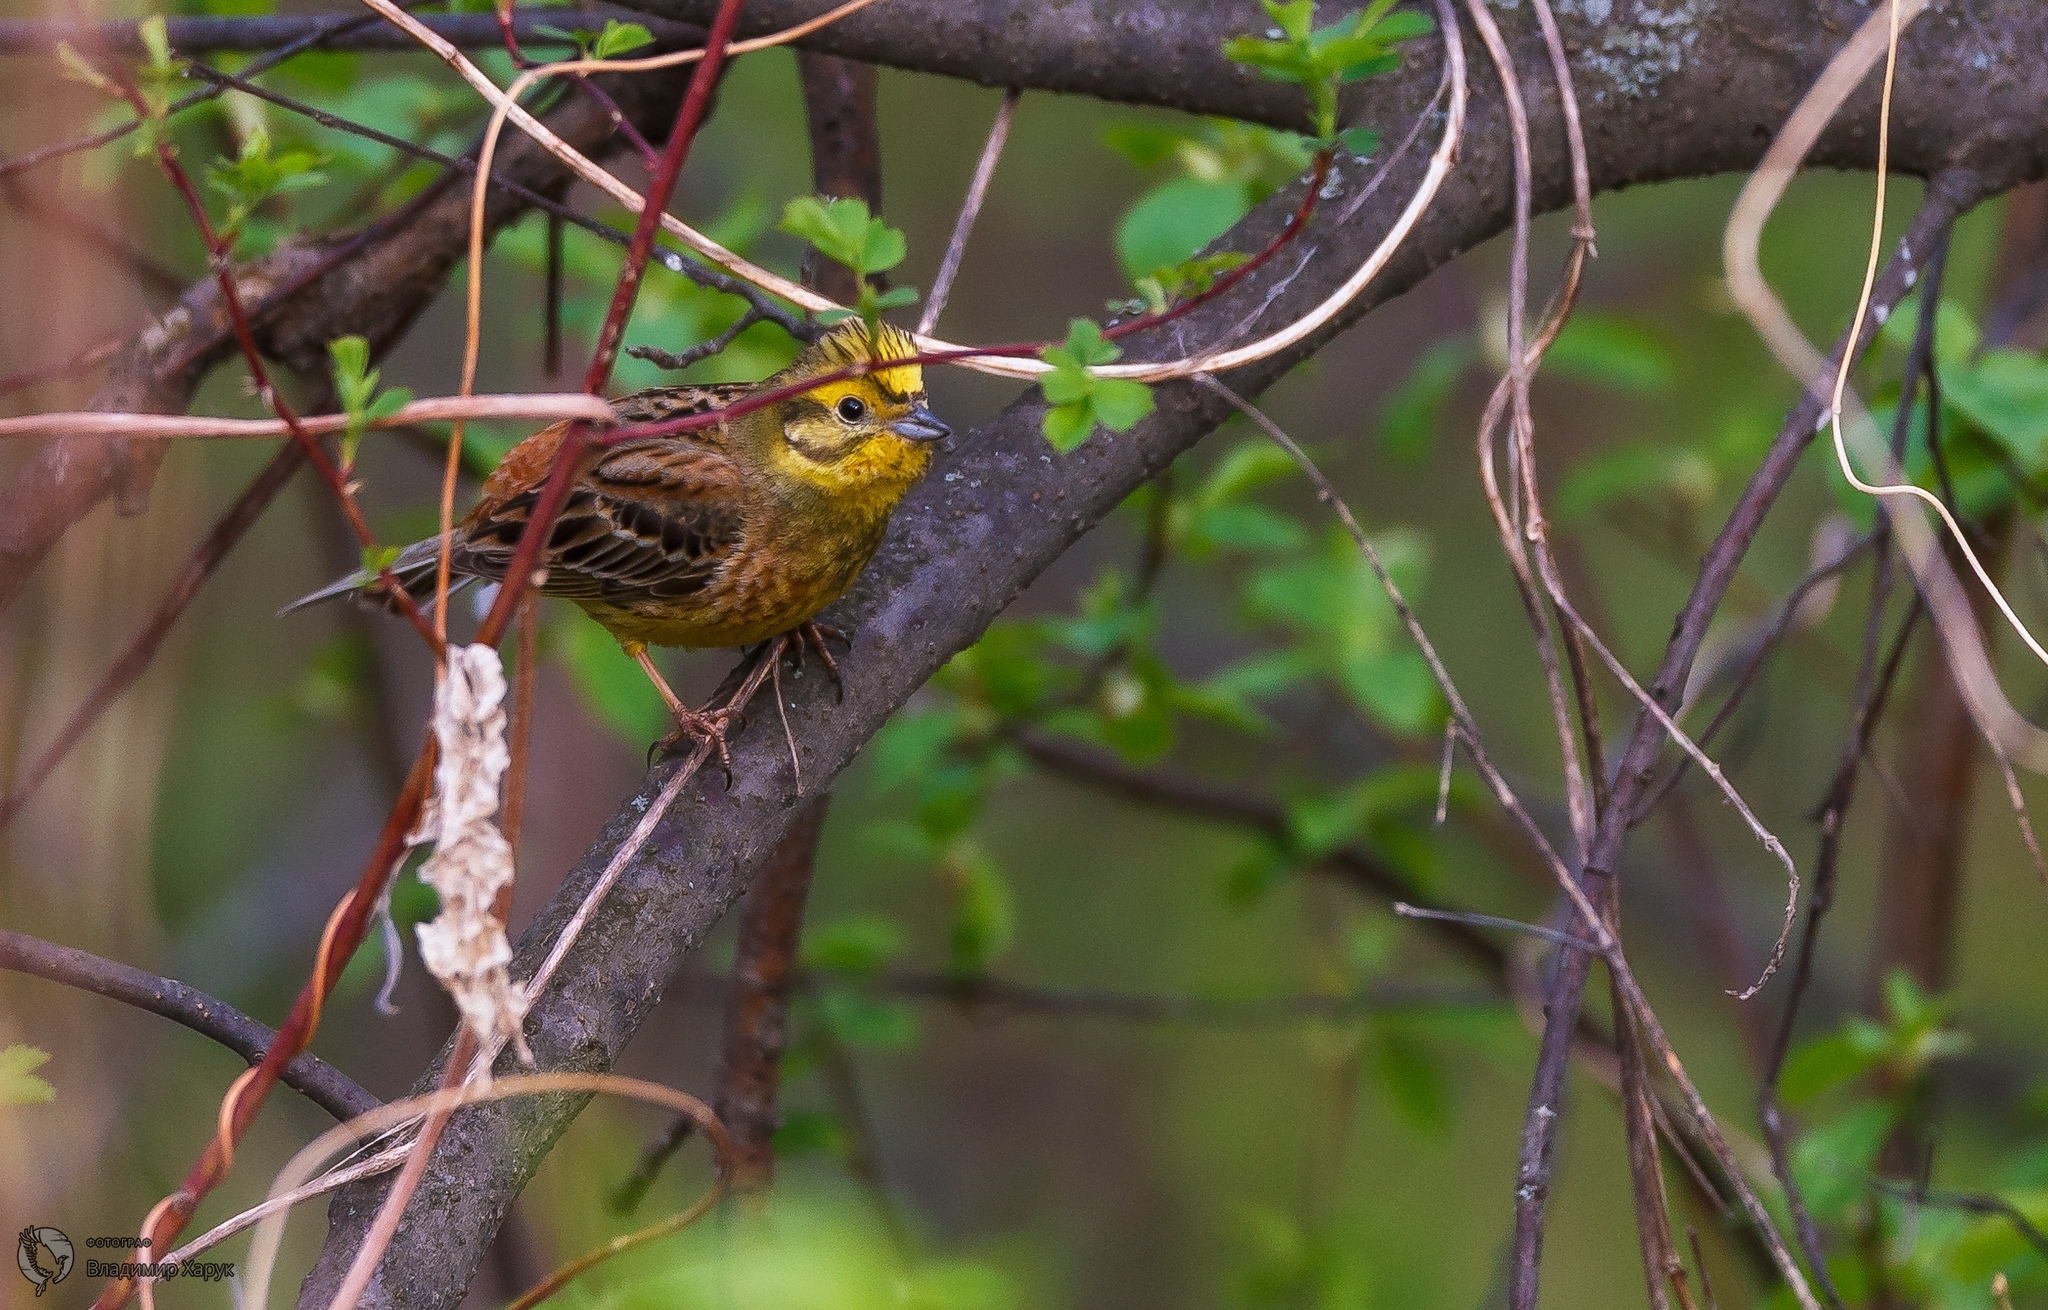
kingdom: Animalia
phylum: Chordata
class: Aves
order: Passeriformes
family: Fringillidae
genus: Spinus
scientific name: Spinus spinus
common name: Eurasian siskin
